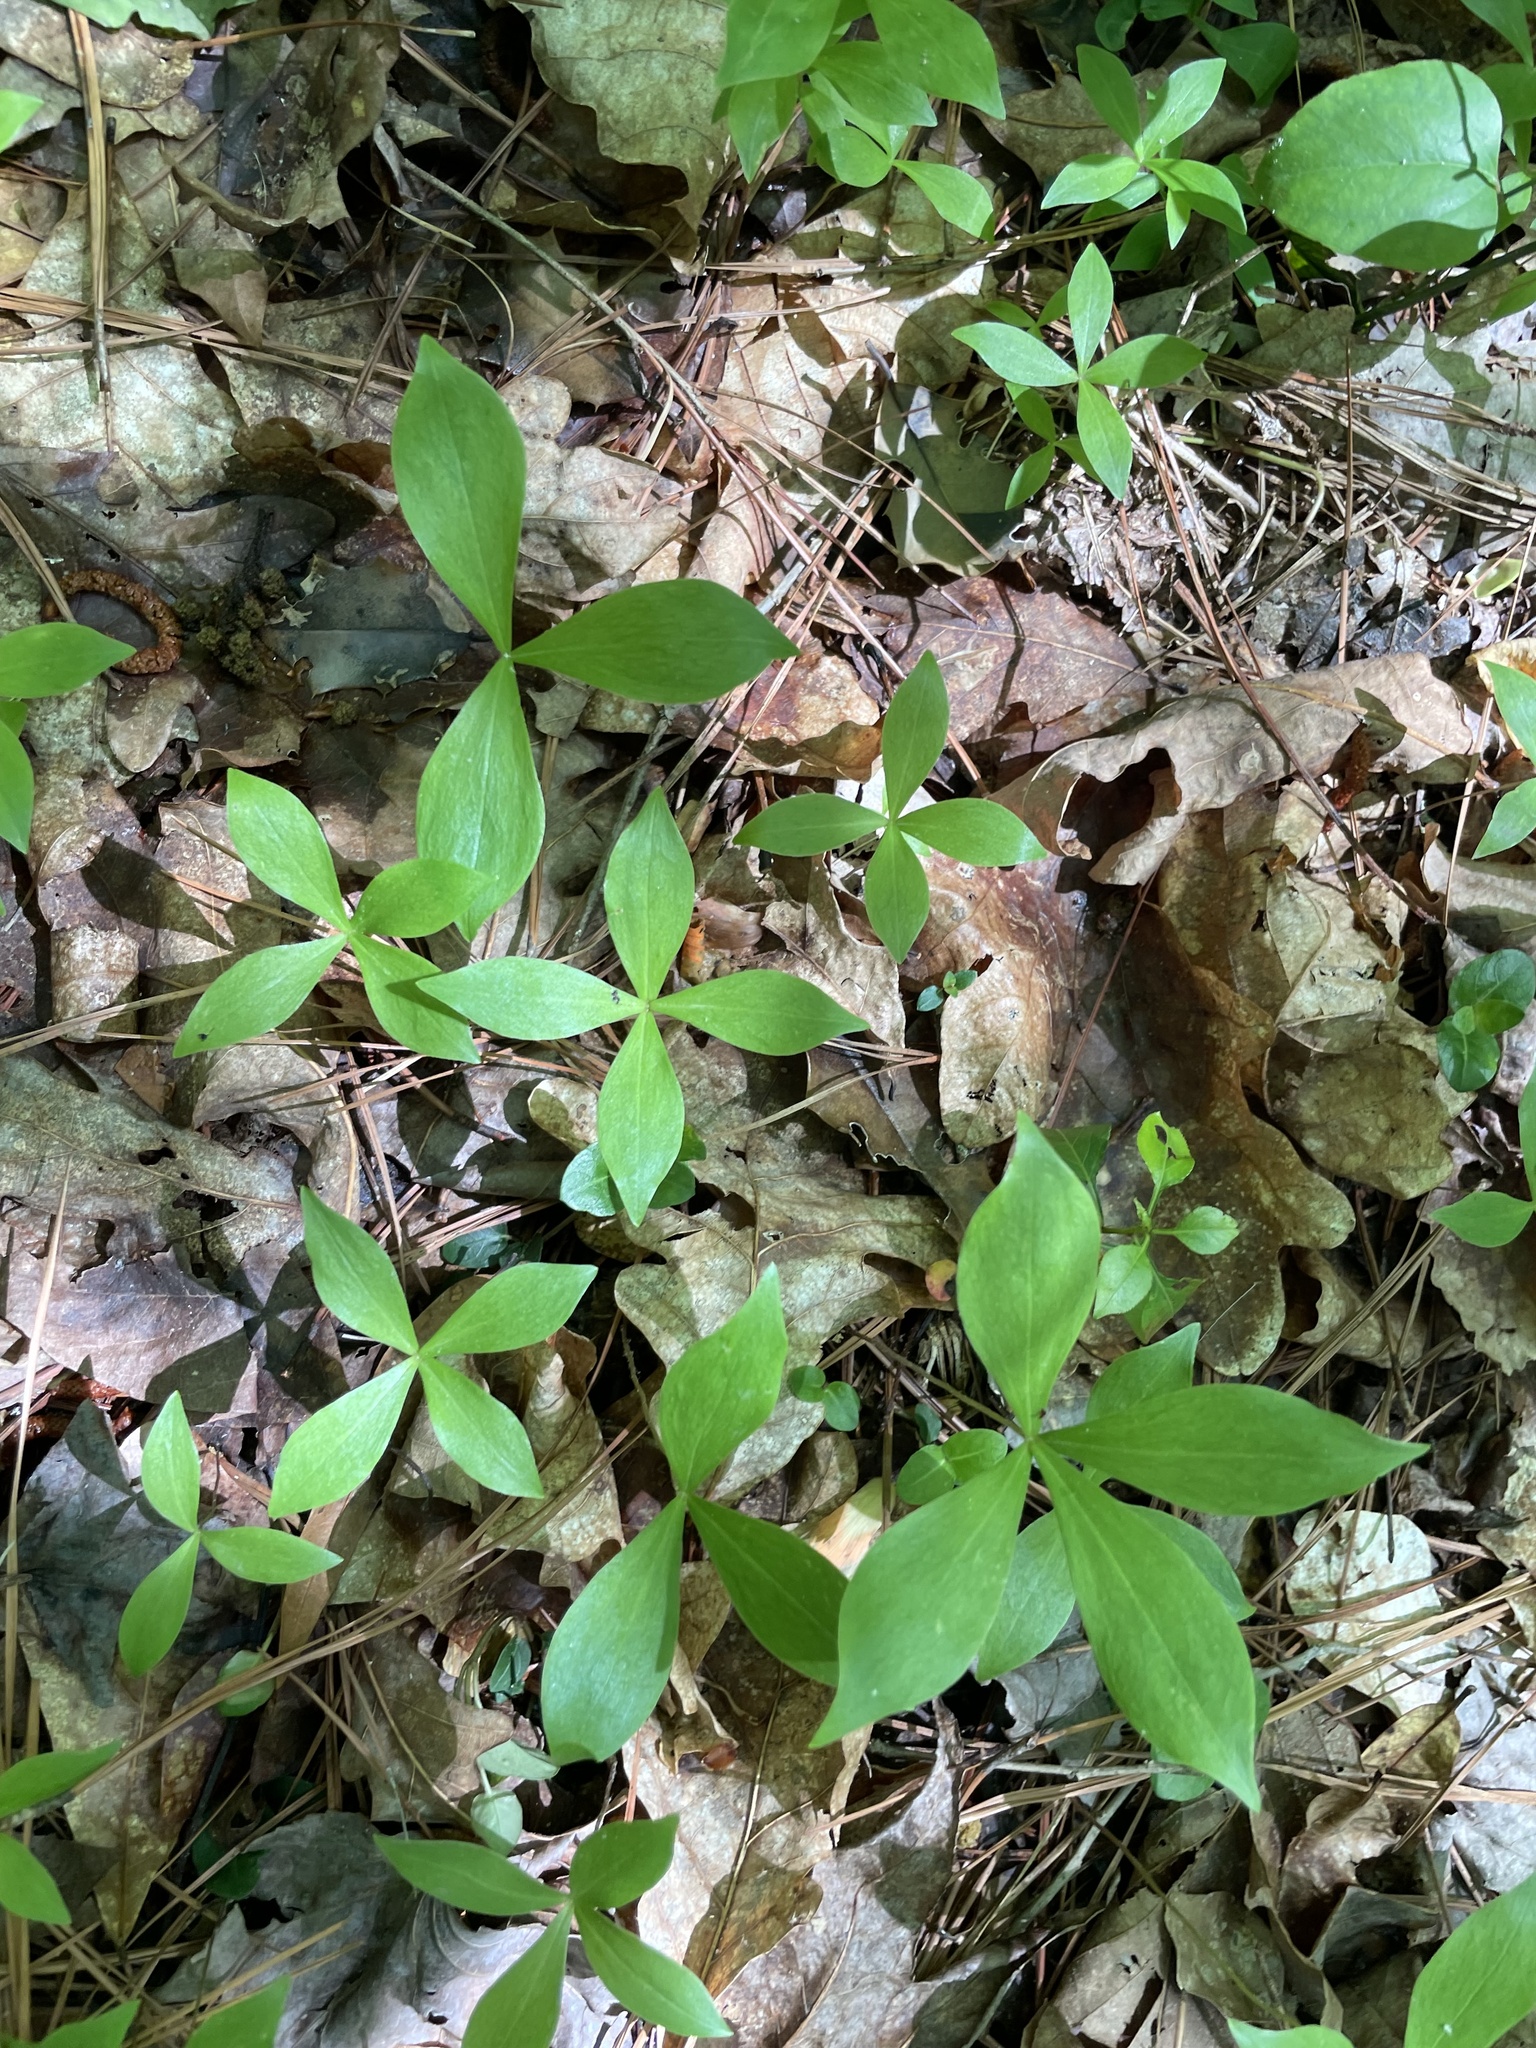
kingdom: Plantae
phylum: Tracheophyta
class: Liliopsida
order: Liliales
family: Liliaceae
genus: Medeola
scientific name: Medeola virginiana
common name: Indian cucumber-root
